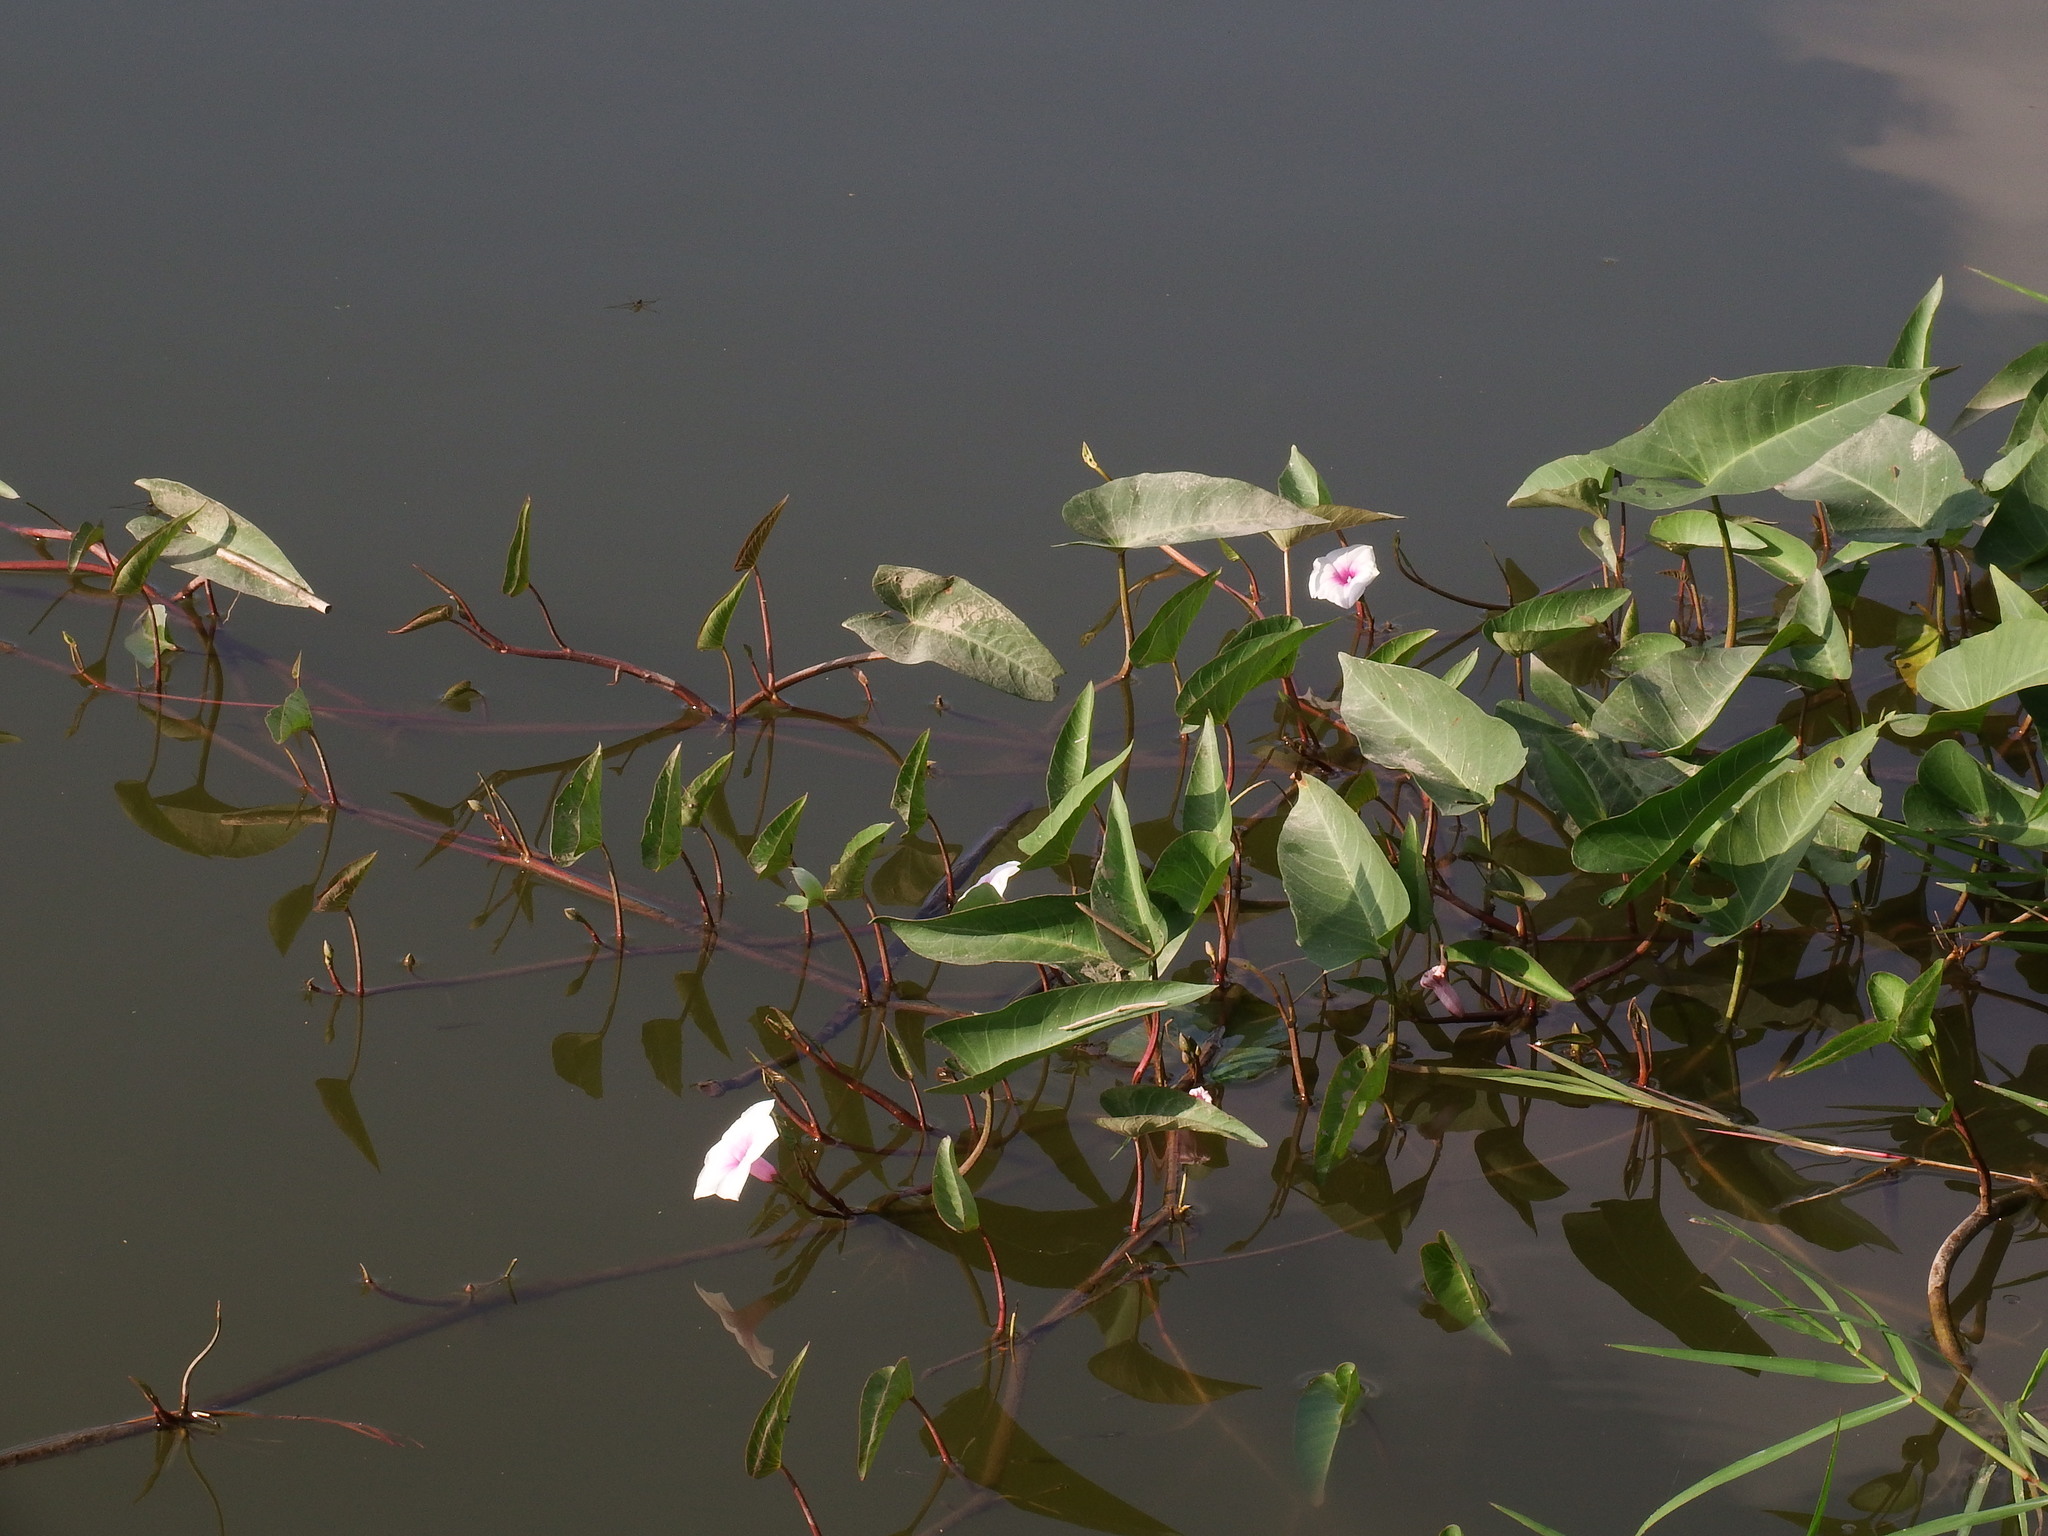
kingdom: Plantae
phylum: Tracheophyta
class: Magnoliopsida
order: Solanales
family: Convolvulaceae
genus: Ipomoea
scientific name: Ipomoea aquatica
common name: Swamp morning-glory
